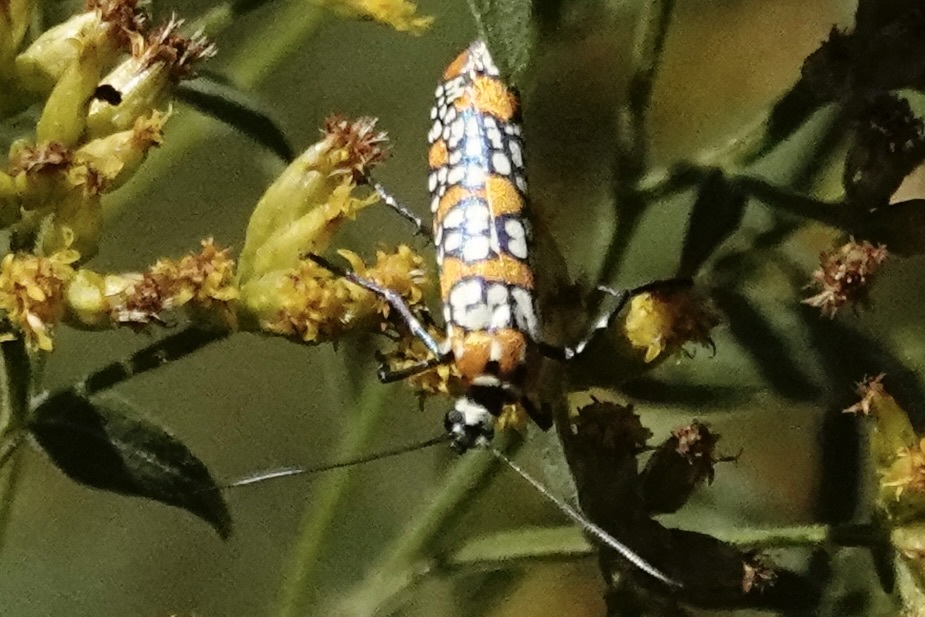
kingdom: Animalia
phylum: Arthropoda
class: Insecta
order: Lepidoptera
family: Attevidae
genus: Atteva
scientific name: Atteva punctella
